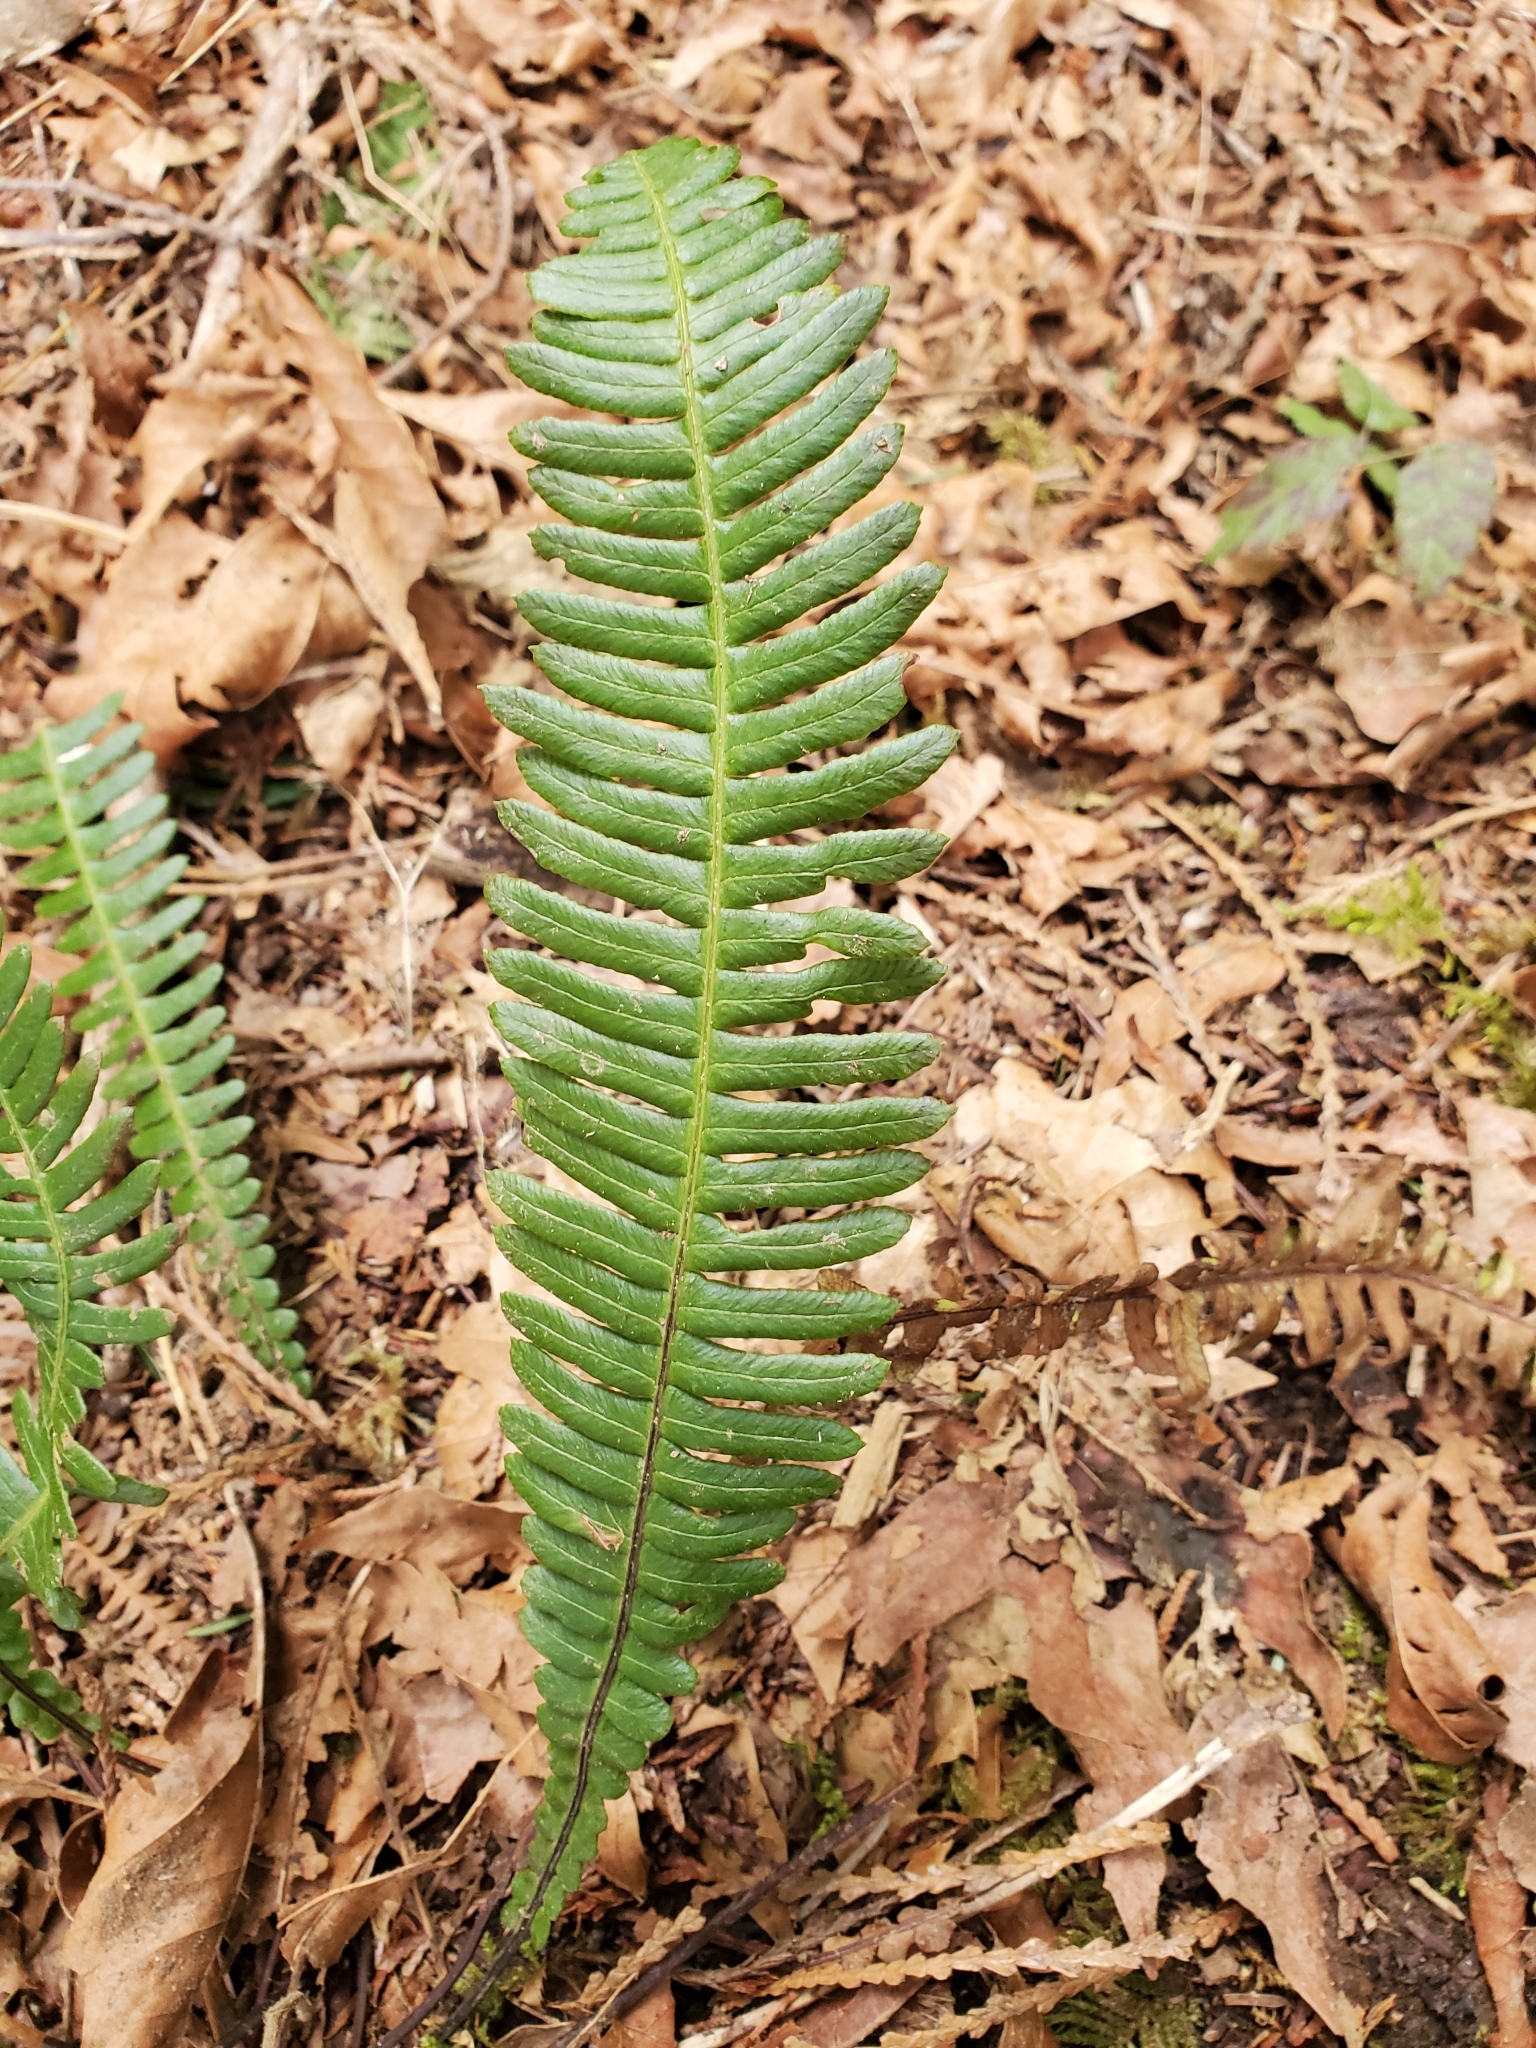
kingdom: Plantae
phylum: Tracheophyta
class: Polypodiopsida
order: Polypodiales
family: Blechnaceae
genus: Struthiopteris
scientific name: Struthiopteris spicant
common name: Deer fern
